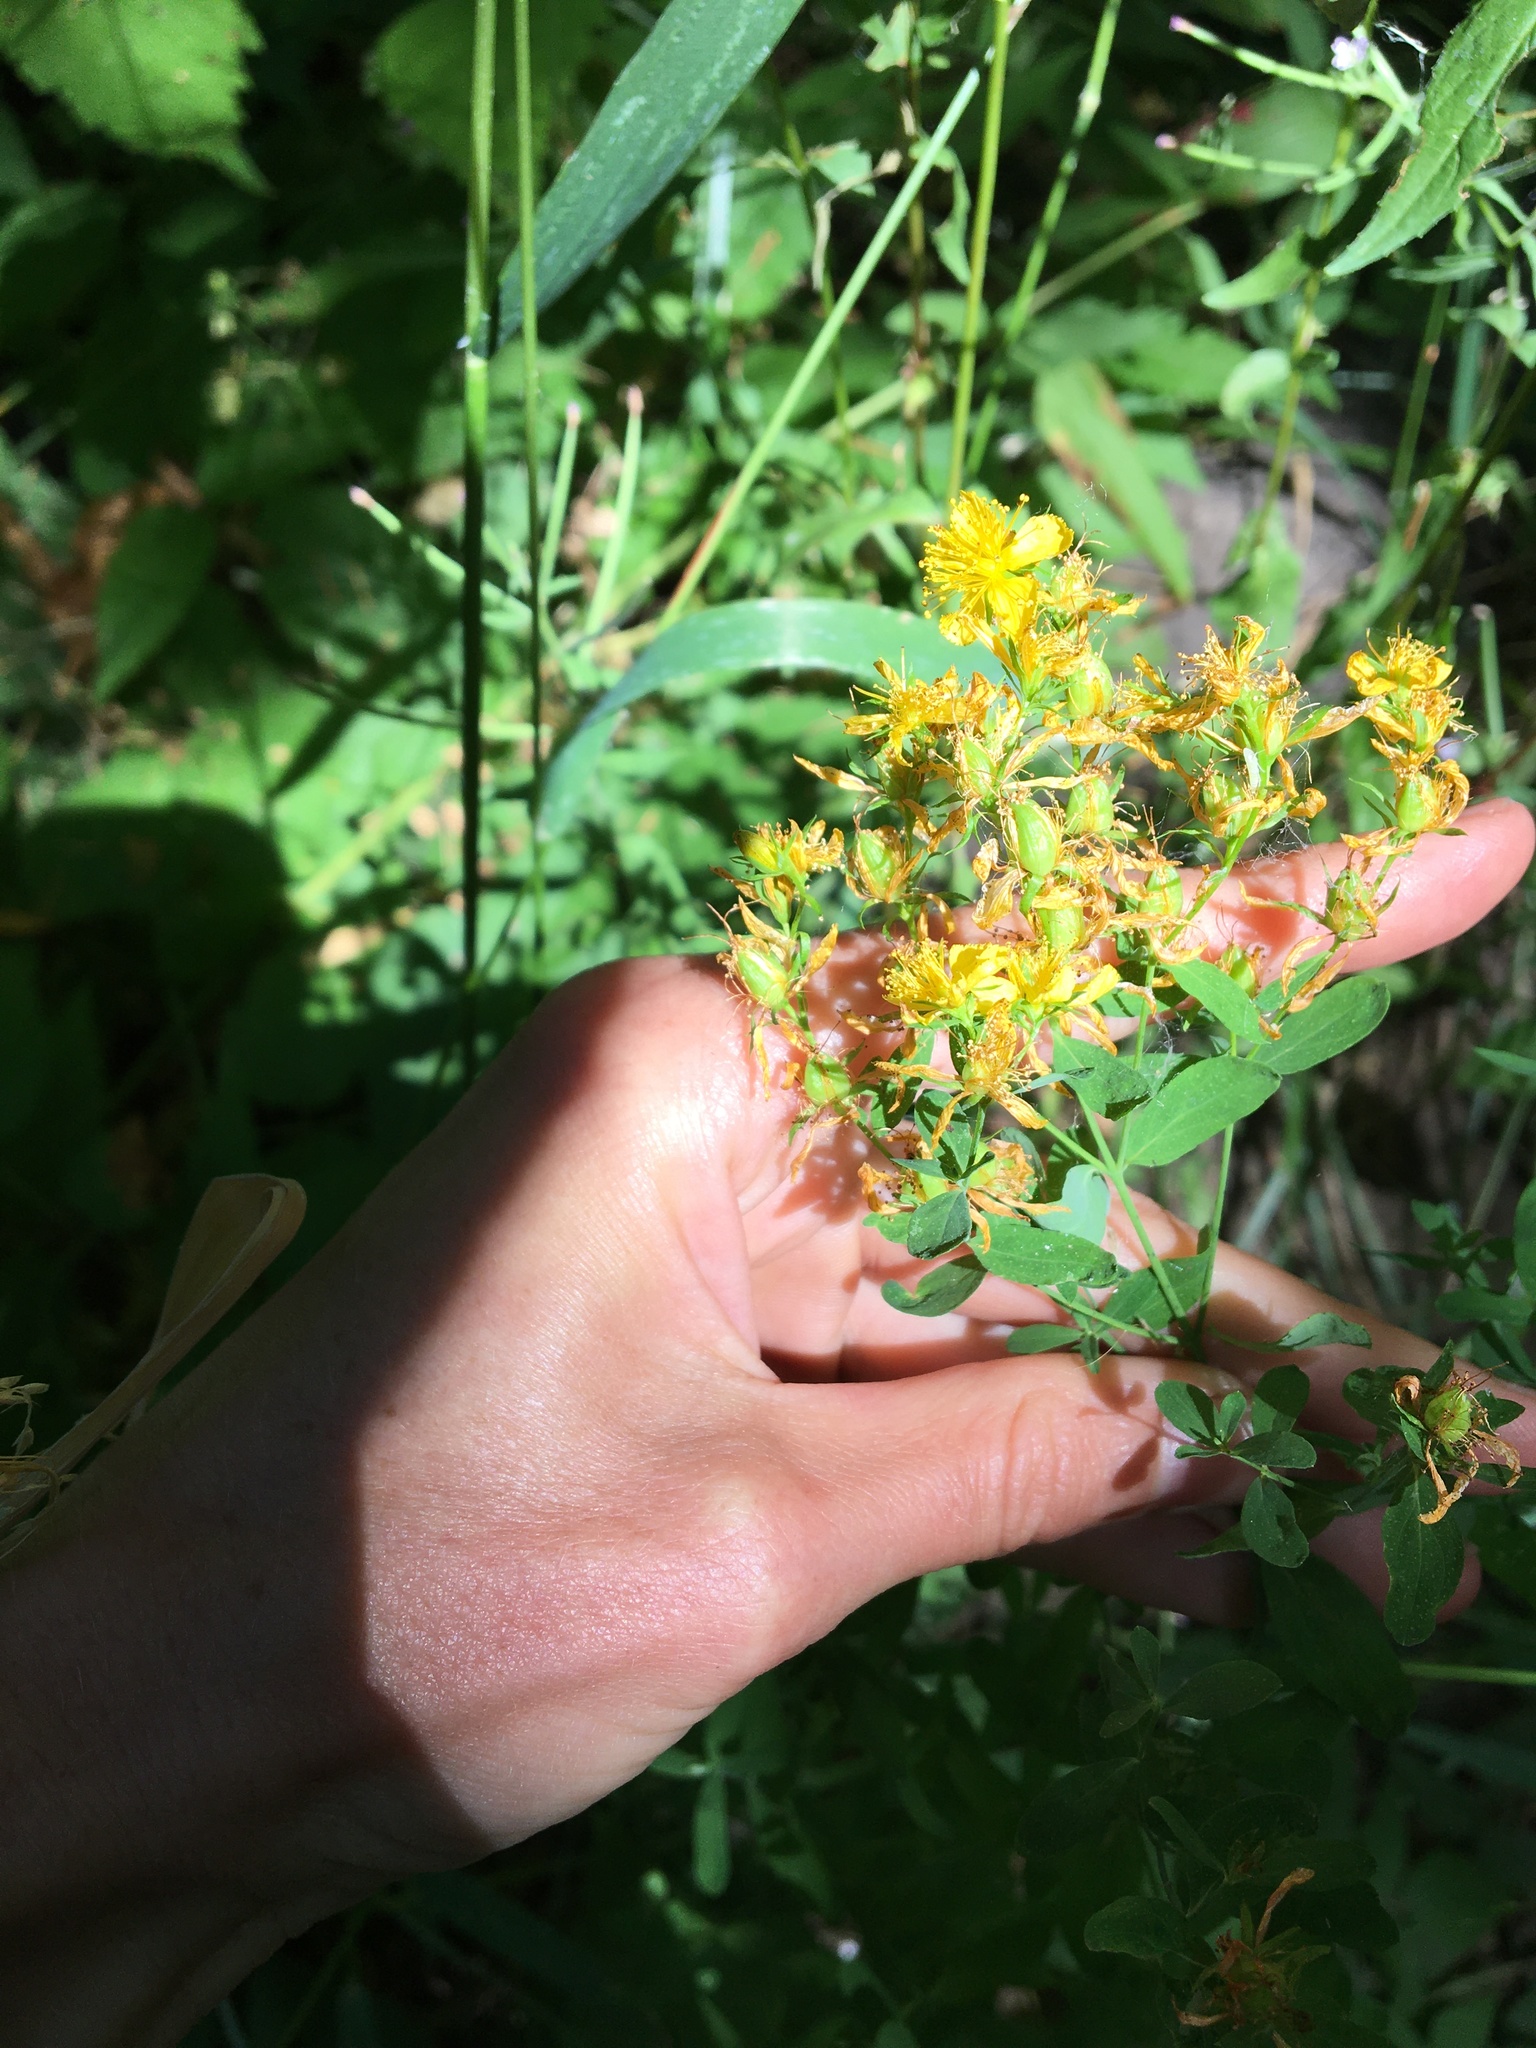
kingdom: Plantae
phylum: Tracheophyta
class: Magnoliopsida
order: Malpighiales
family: Hypericaceae
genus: Hypericum
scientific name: Hypericum perforatum
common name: Common st. johnswort
